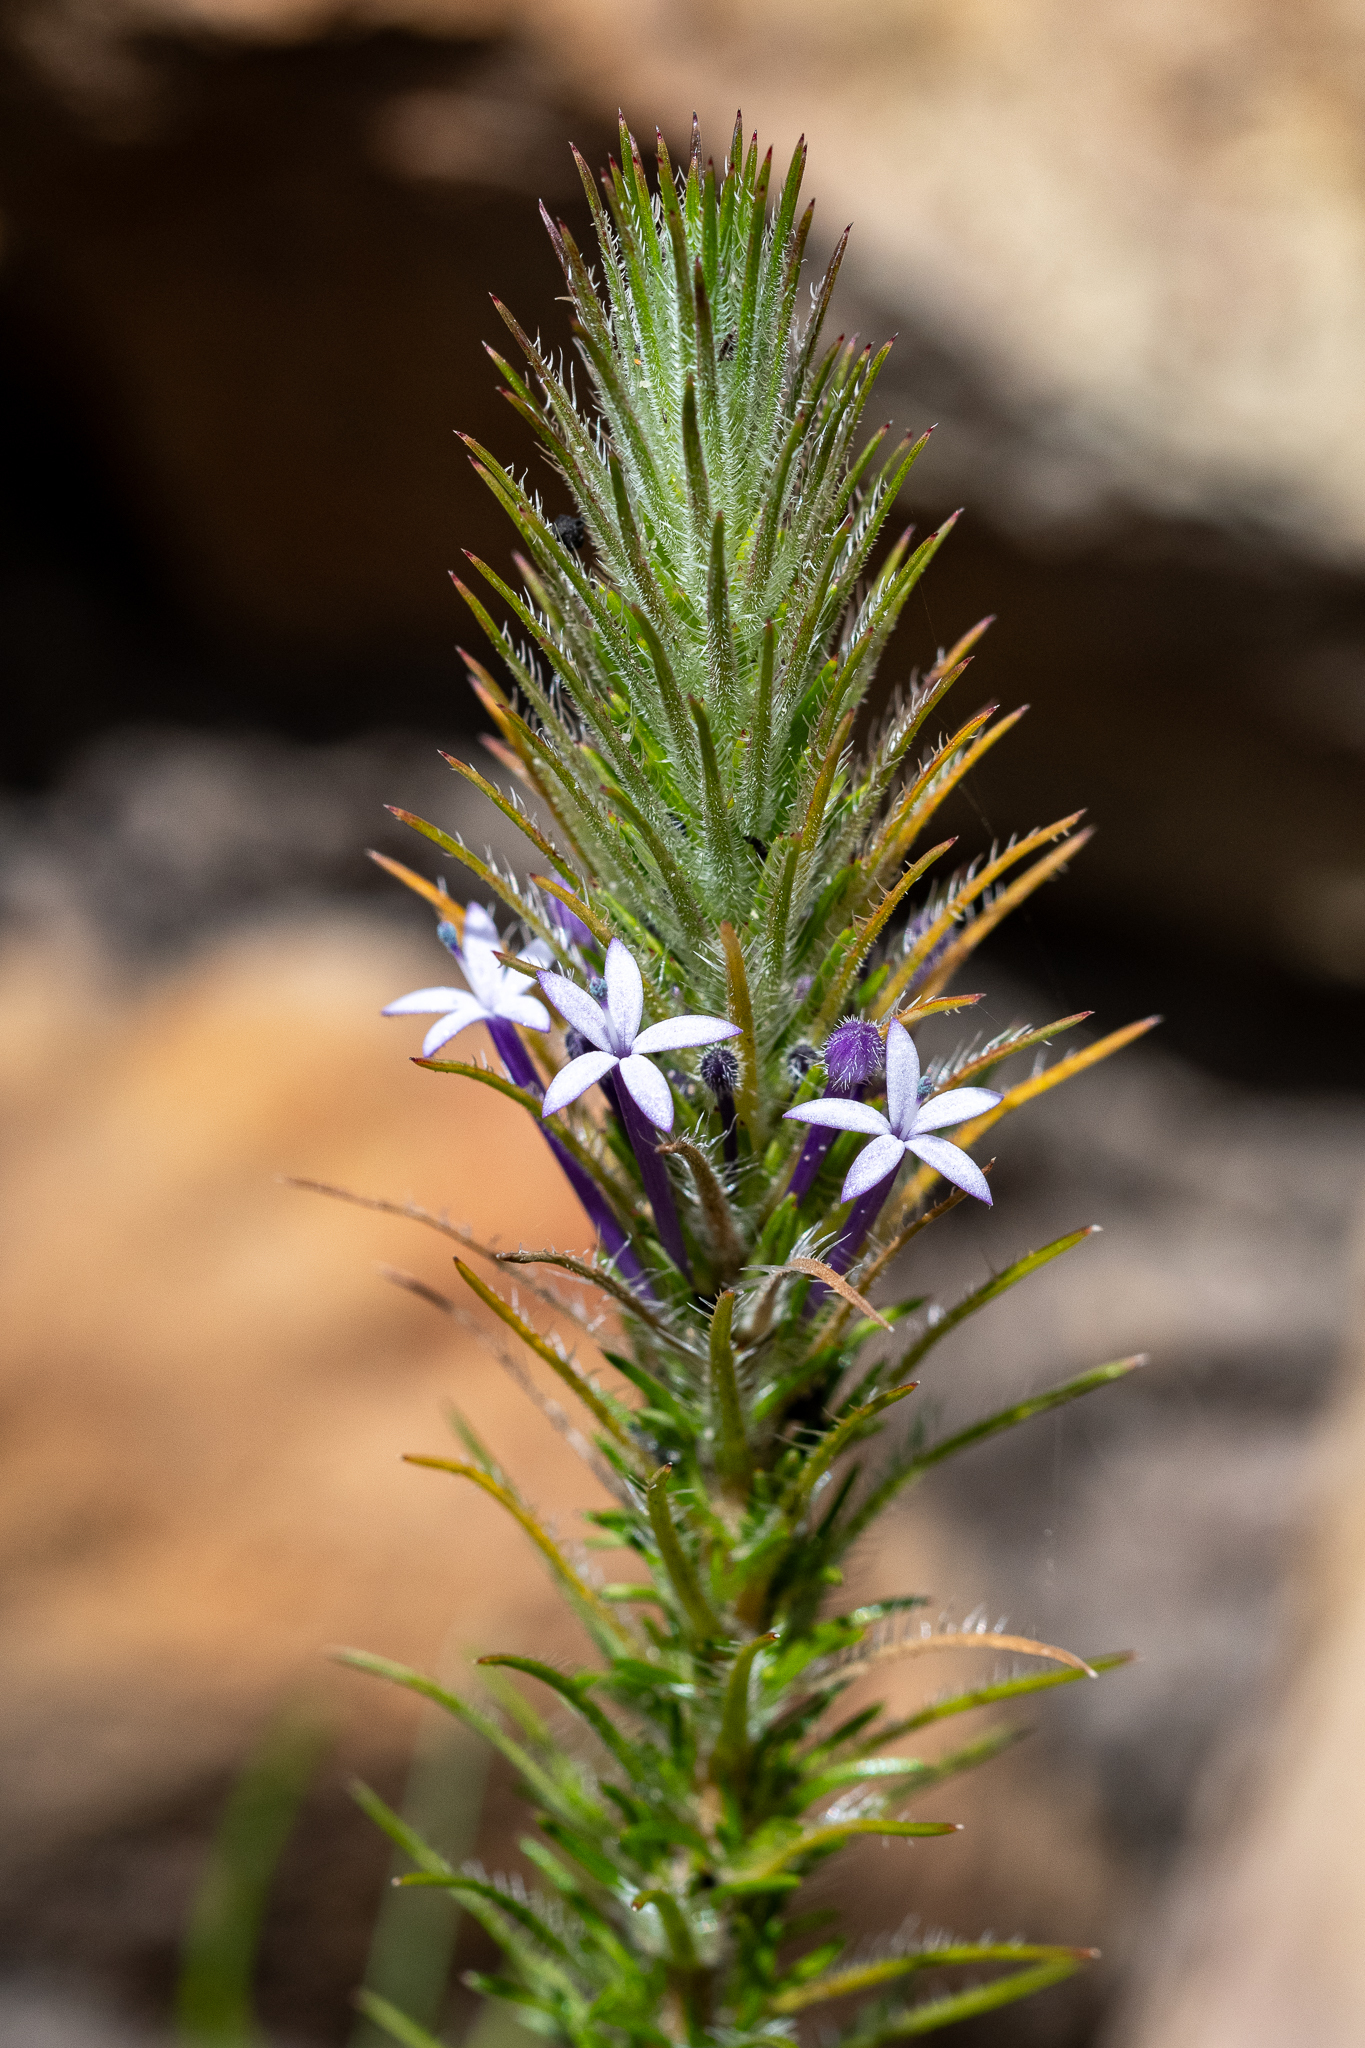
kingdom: Plantae
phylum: Tracheophyta
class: Magnoliopsida
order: Asterales
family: Campanulaceae
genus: Merciera
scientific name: Merciera tenuifolia
